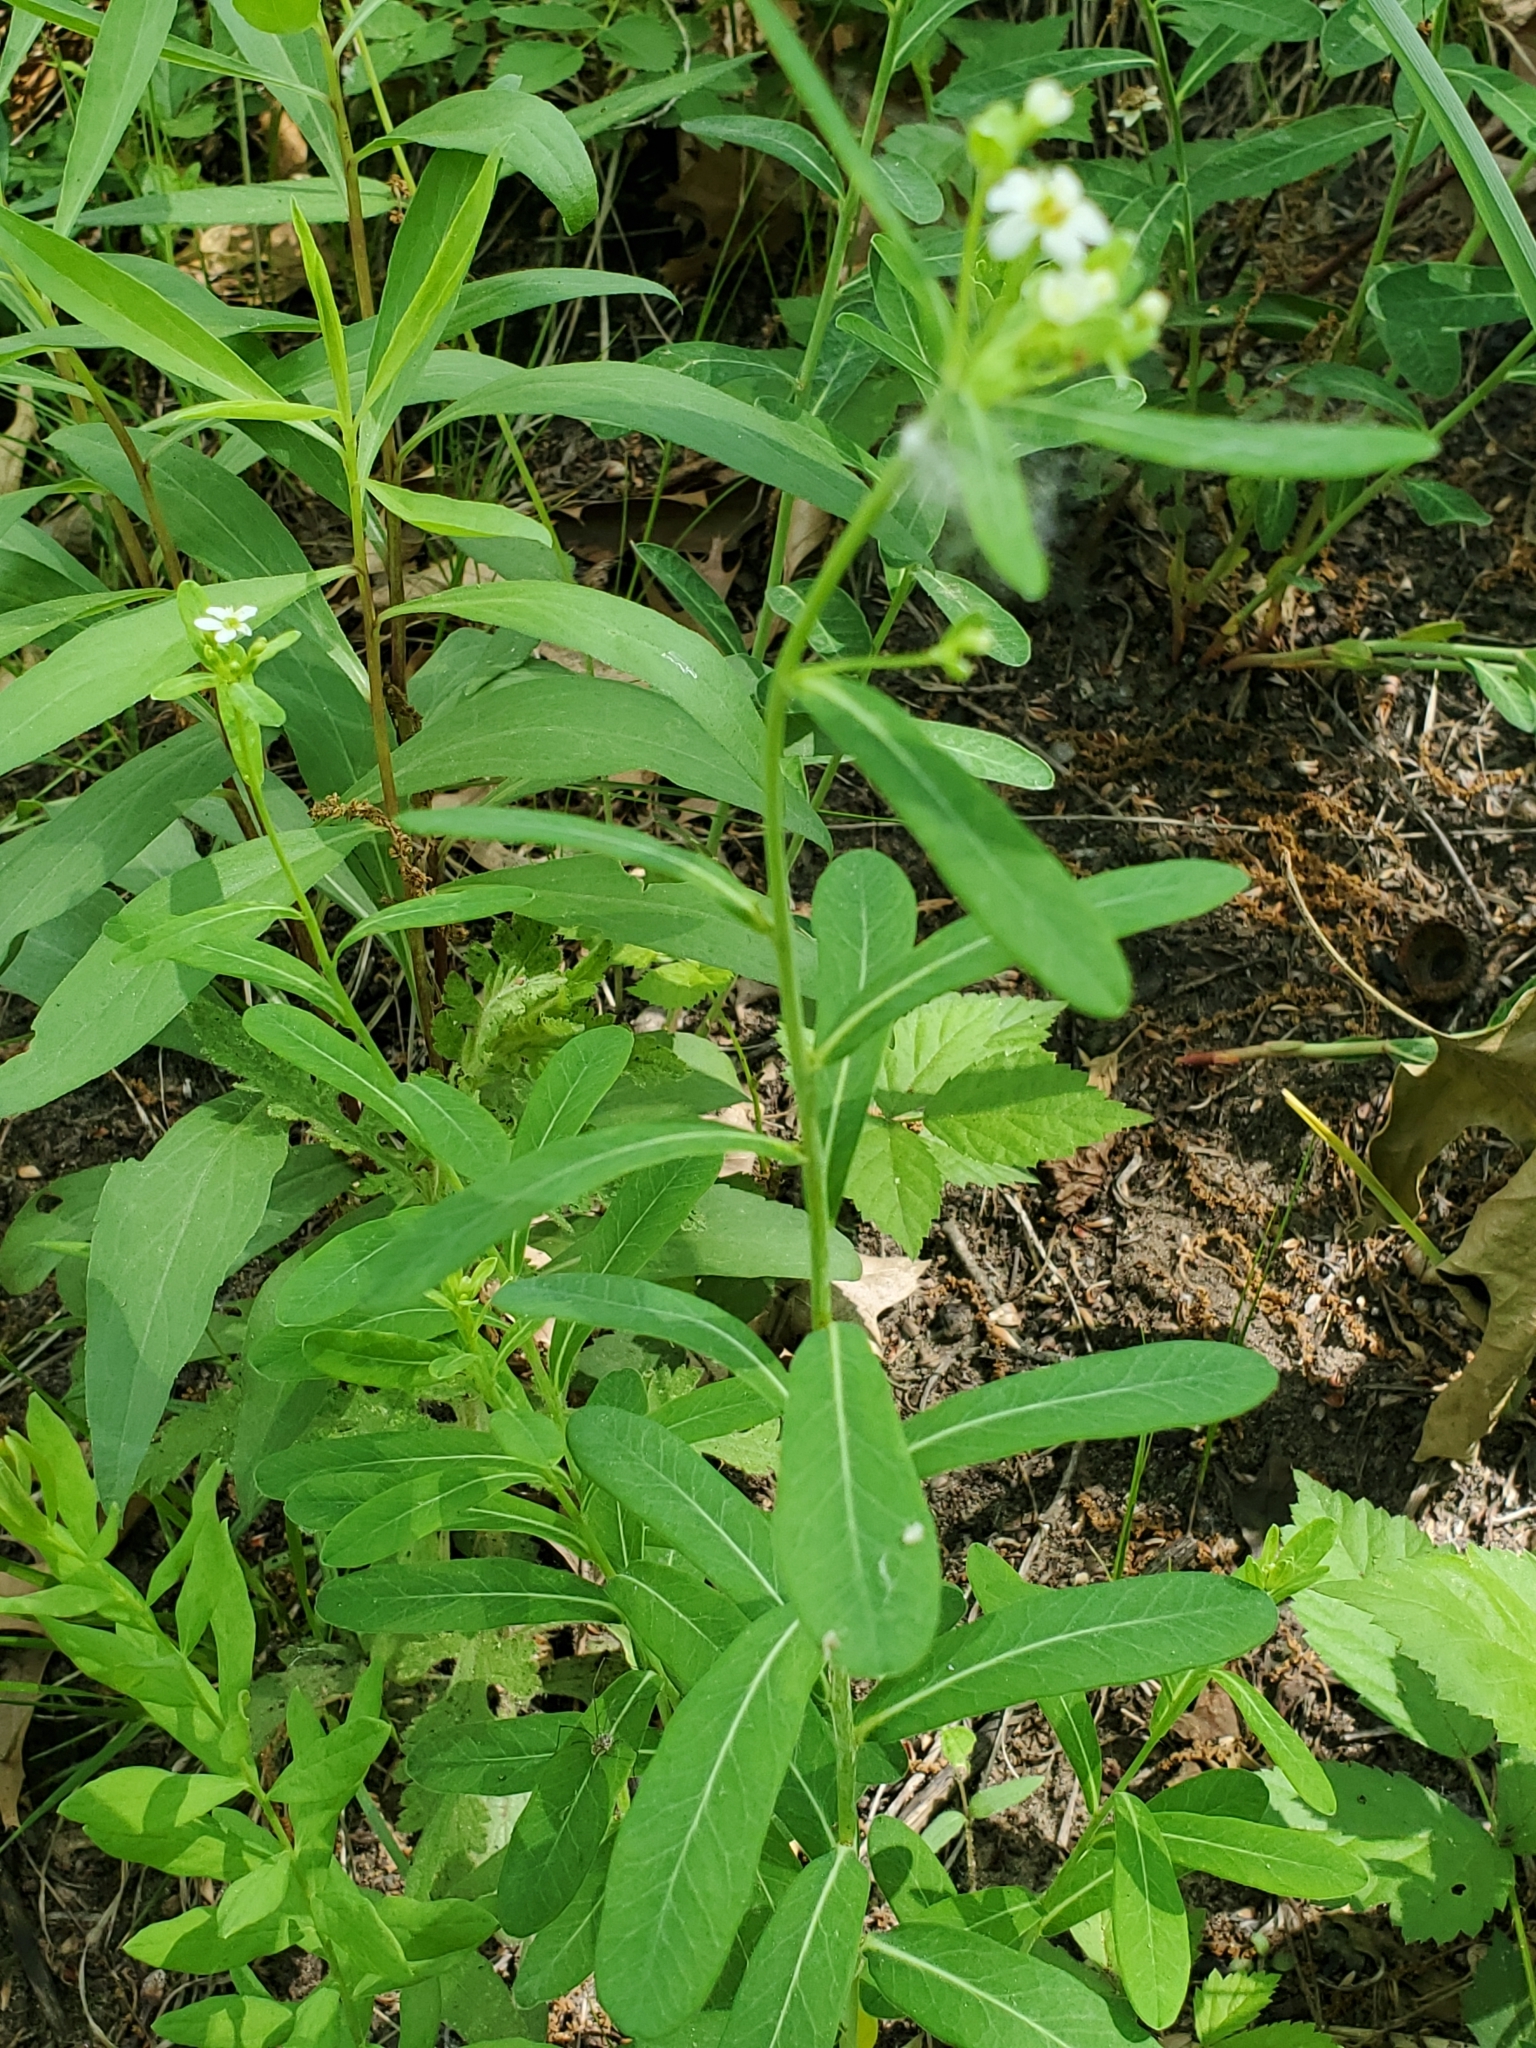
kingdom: Plantae
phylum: Tracheophyta
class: Magnoliopsida
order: Malpighiales
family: Euphorbiaceae
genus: Euphorbia
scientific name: Euphorbia corollata
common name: Flowering spurge
